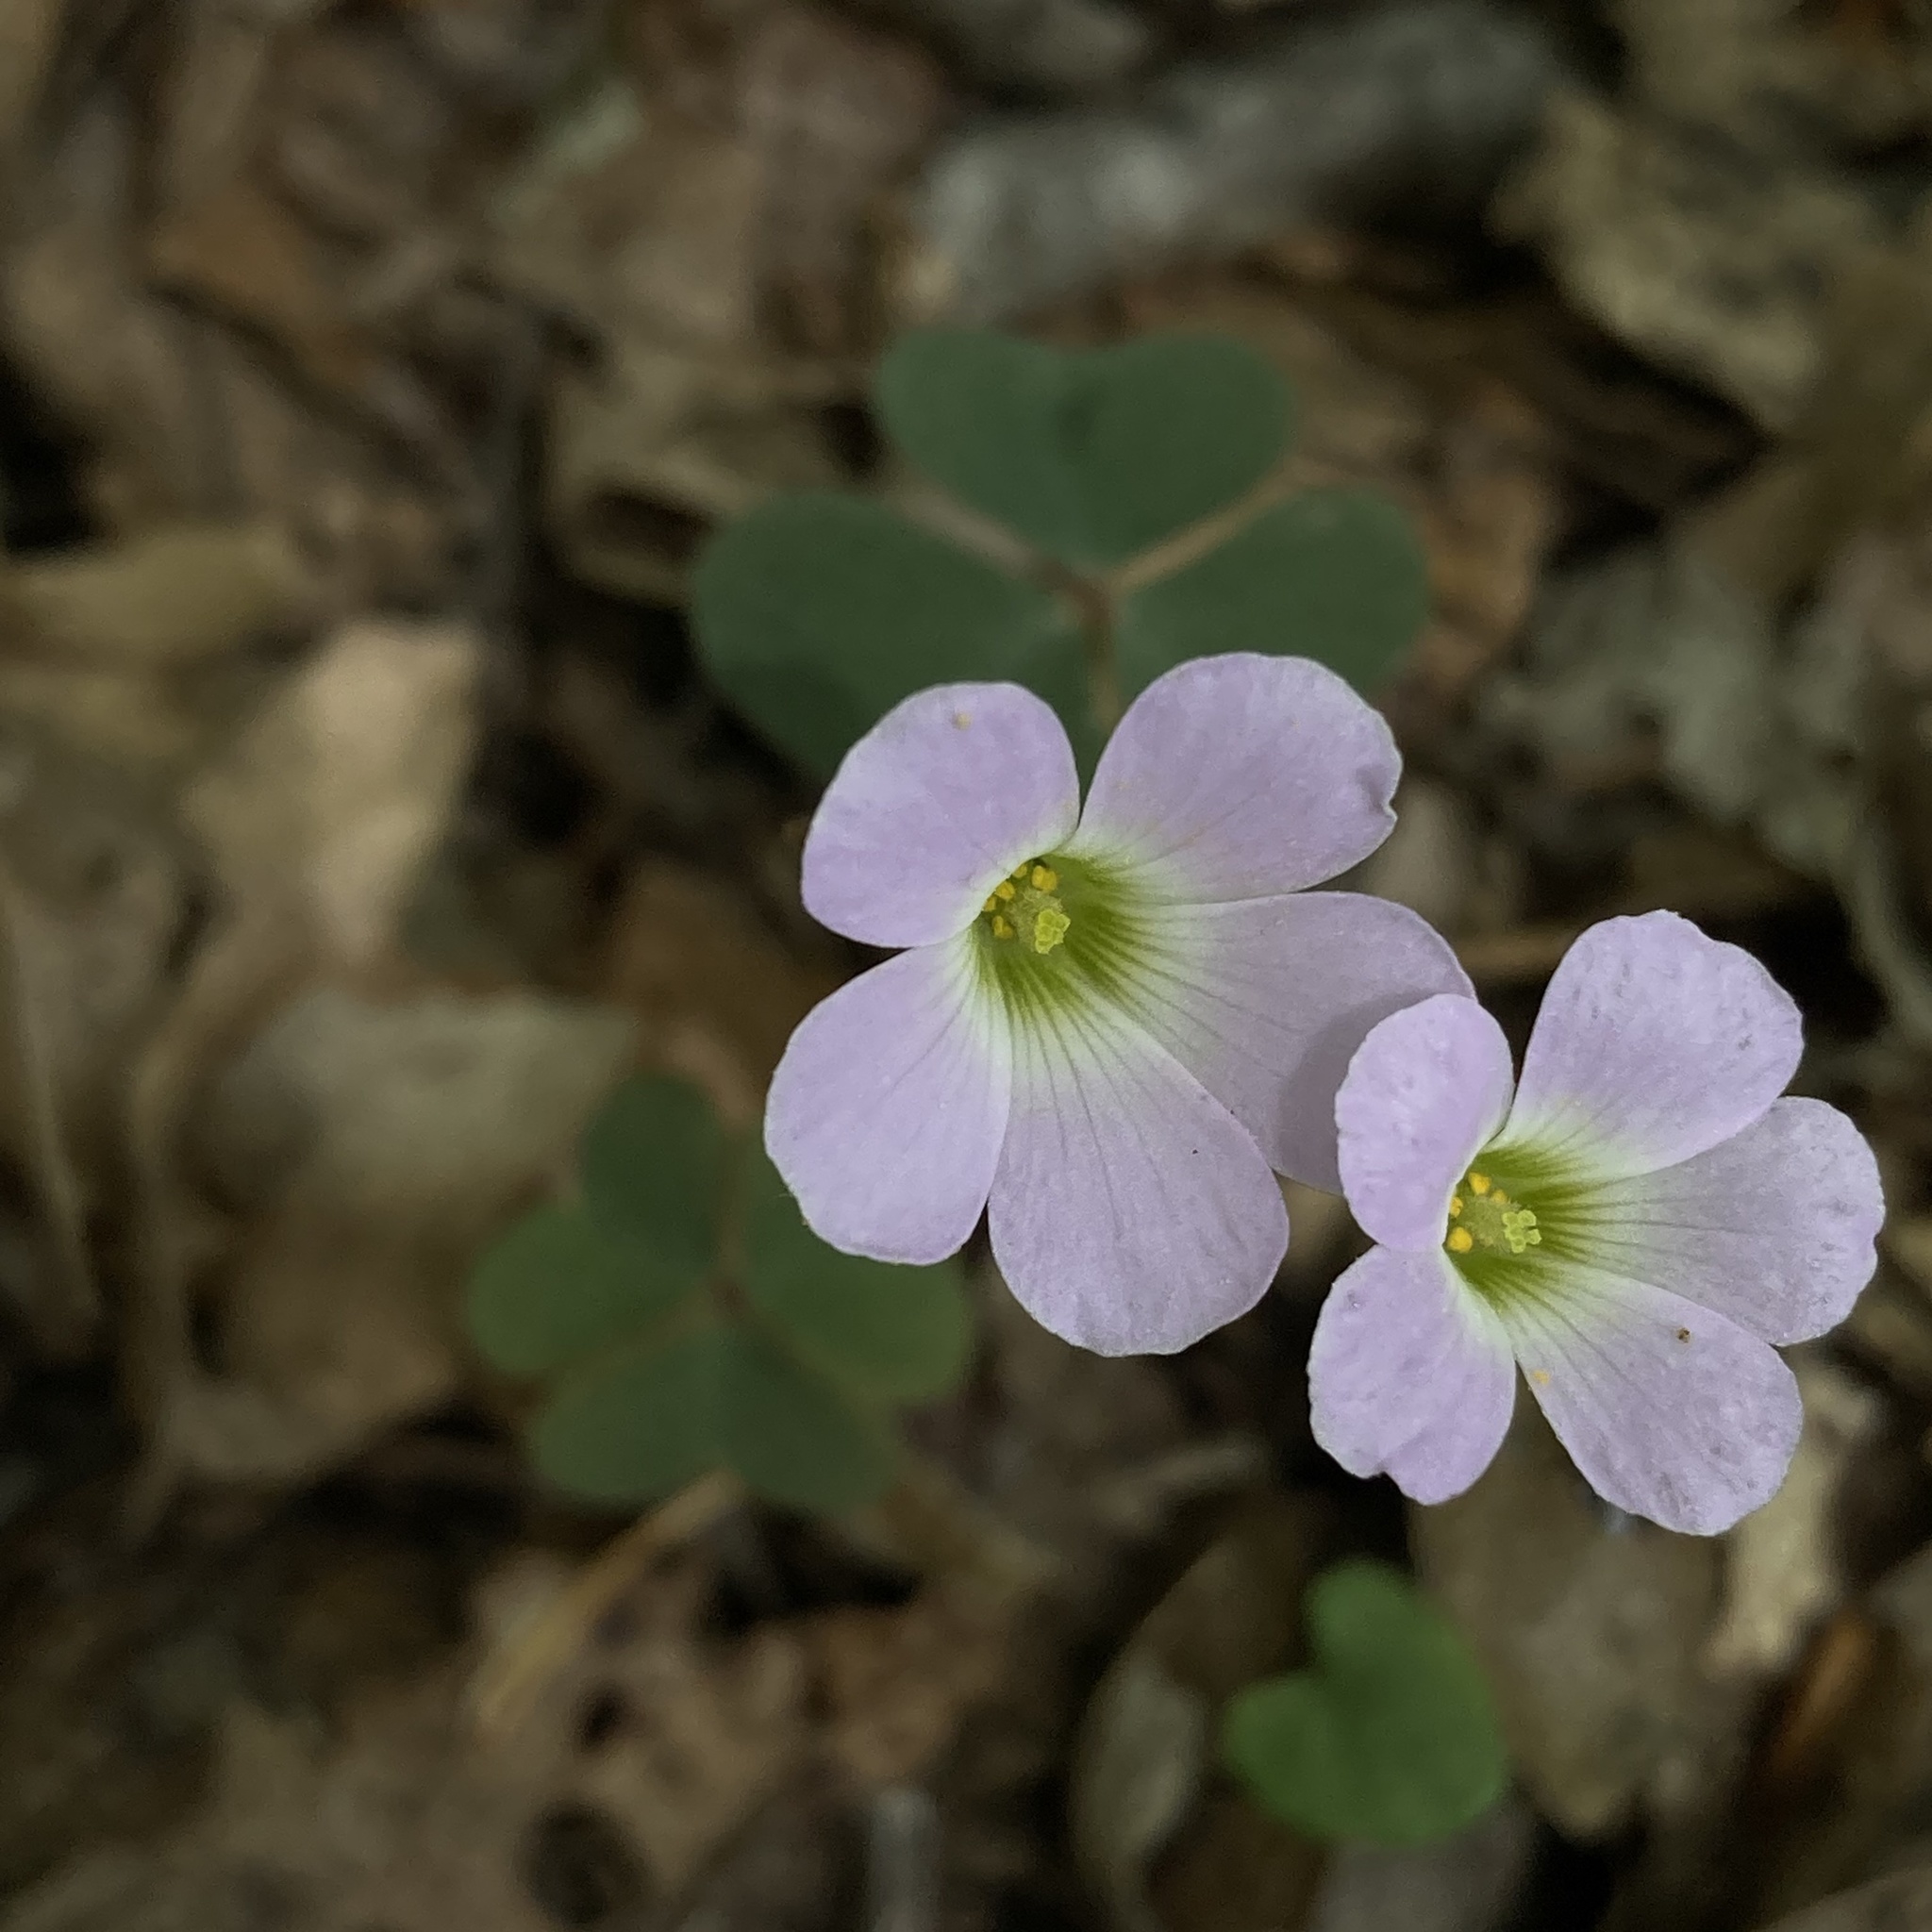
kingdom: Plantae
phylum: Tracheophyta
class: Magnoliopsida
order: Oxalidales
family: Oxalidaceae
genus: Oxalis
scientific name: Oxalis violacea
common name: Violet wood-sorrel
